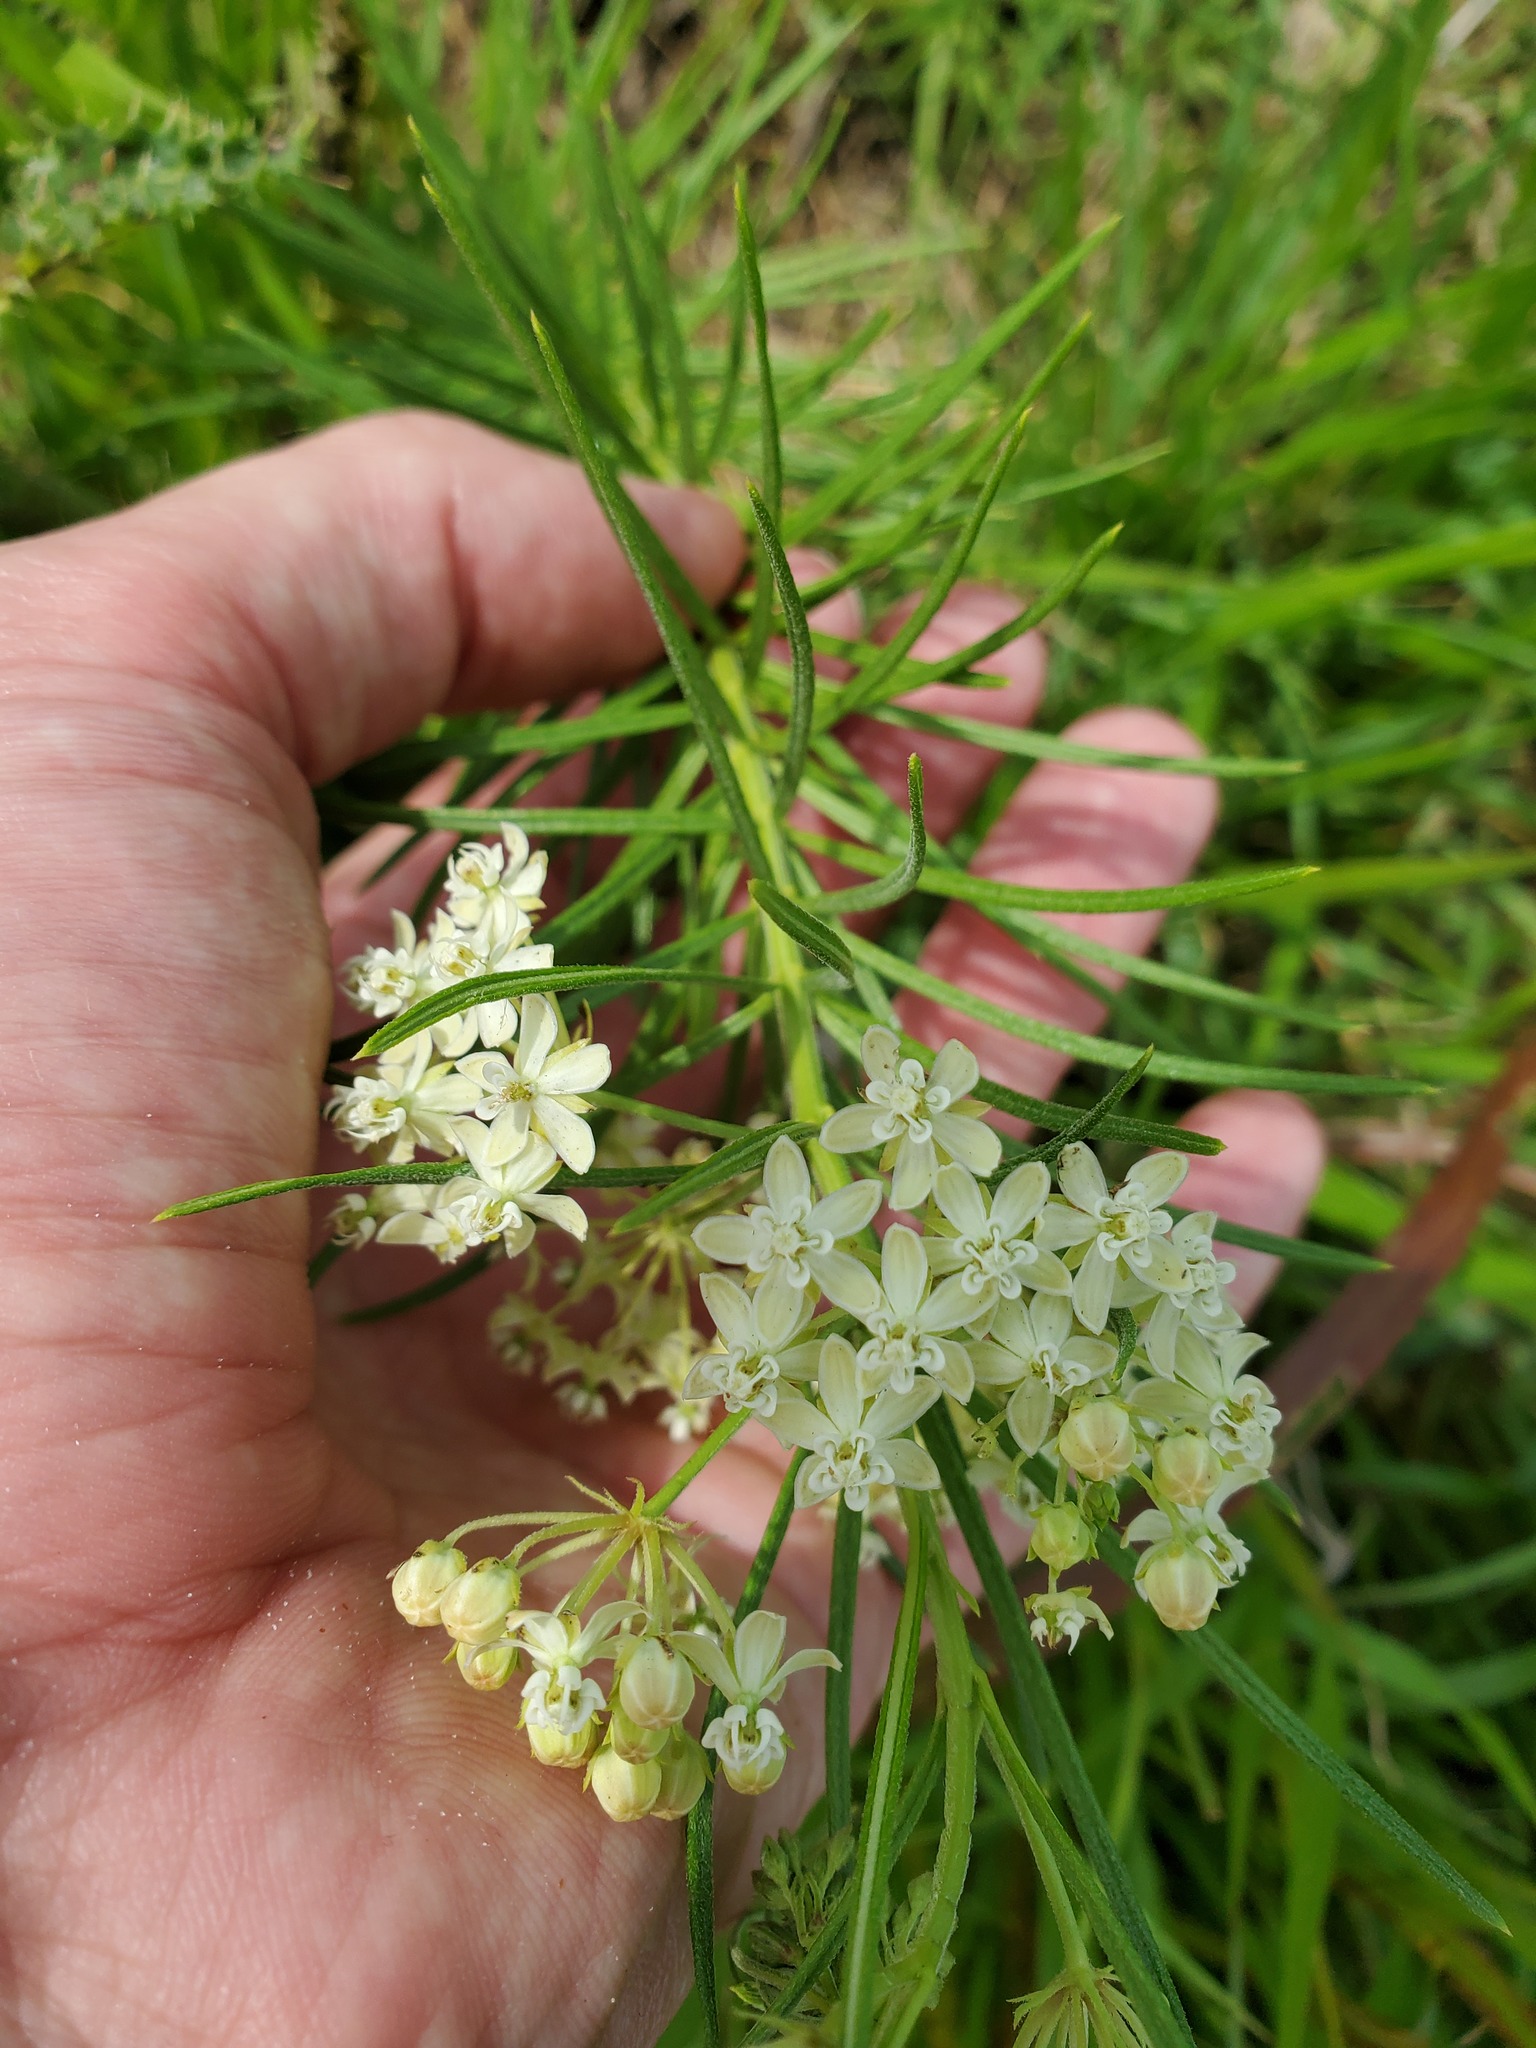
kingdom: Plantae
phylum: Tracheophyta
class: Magnoliopsida
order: Gentianales
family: Apocynaceae
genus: Asclepias
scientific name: Asclepias verticillata
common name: Eastern whorled milkweed
